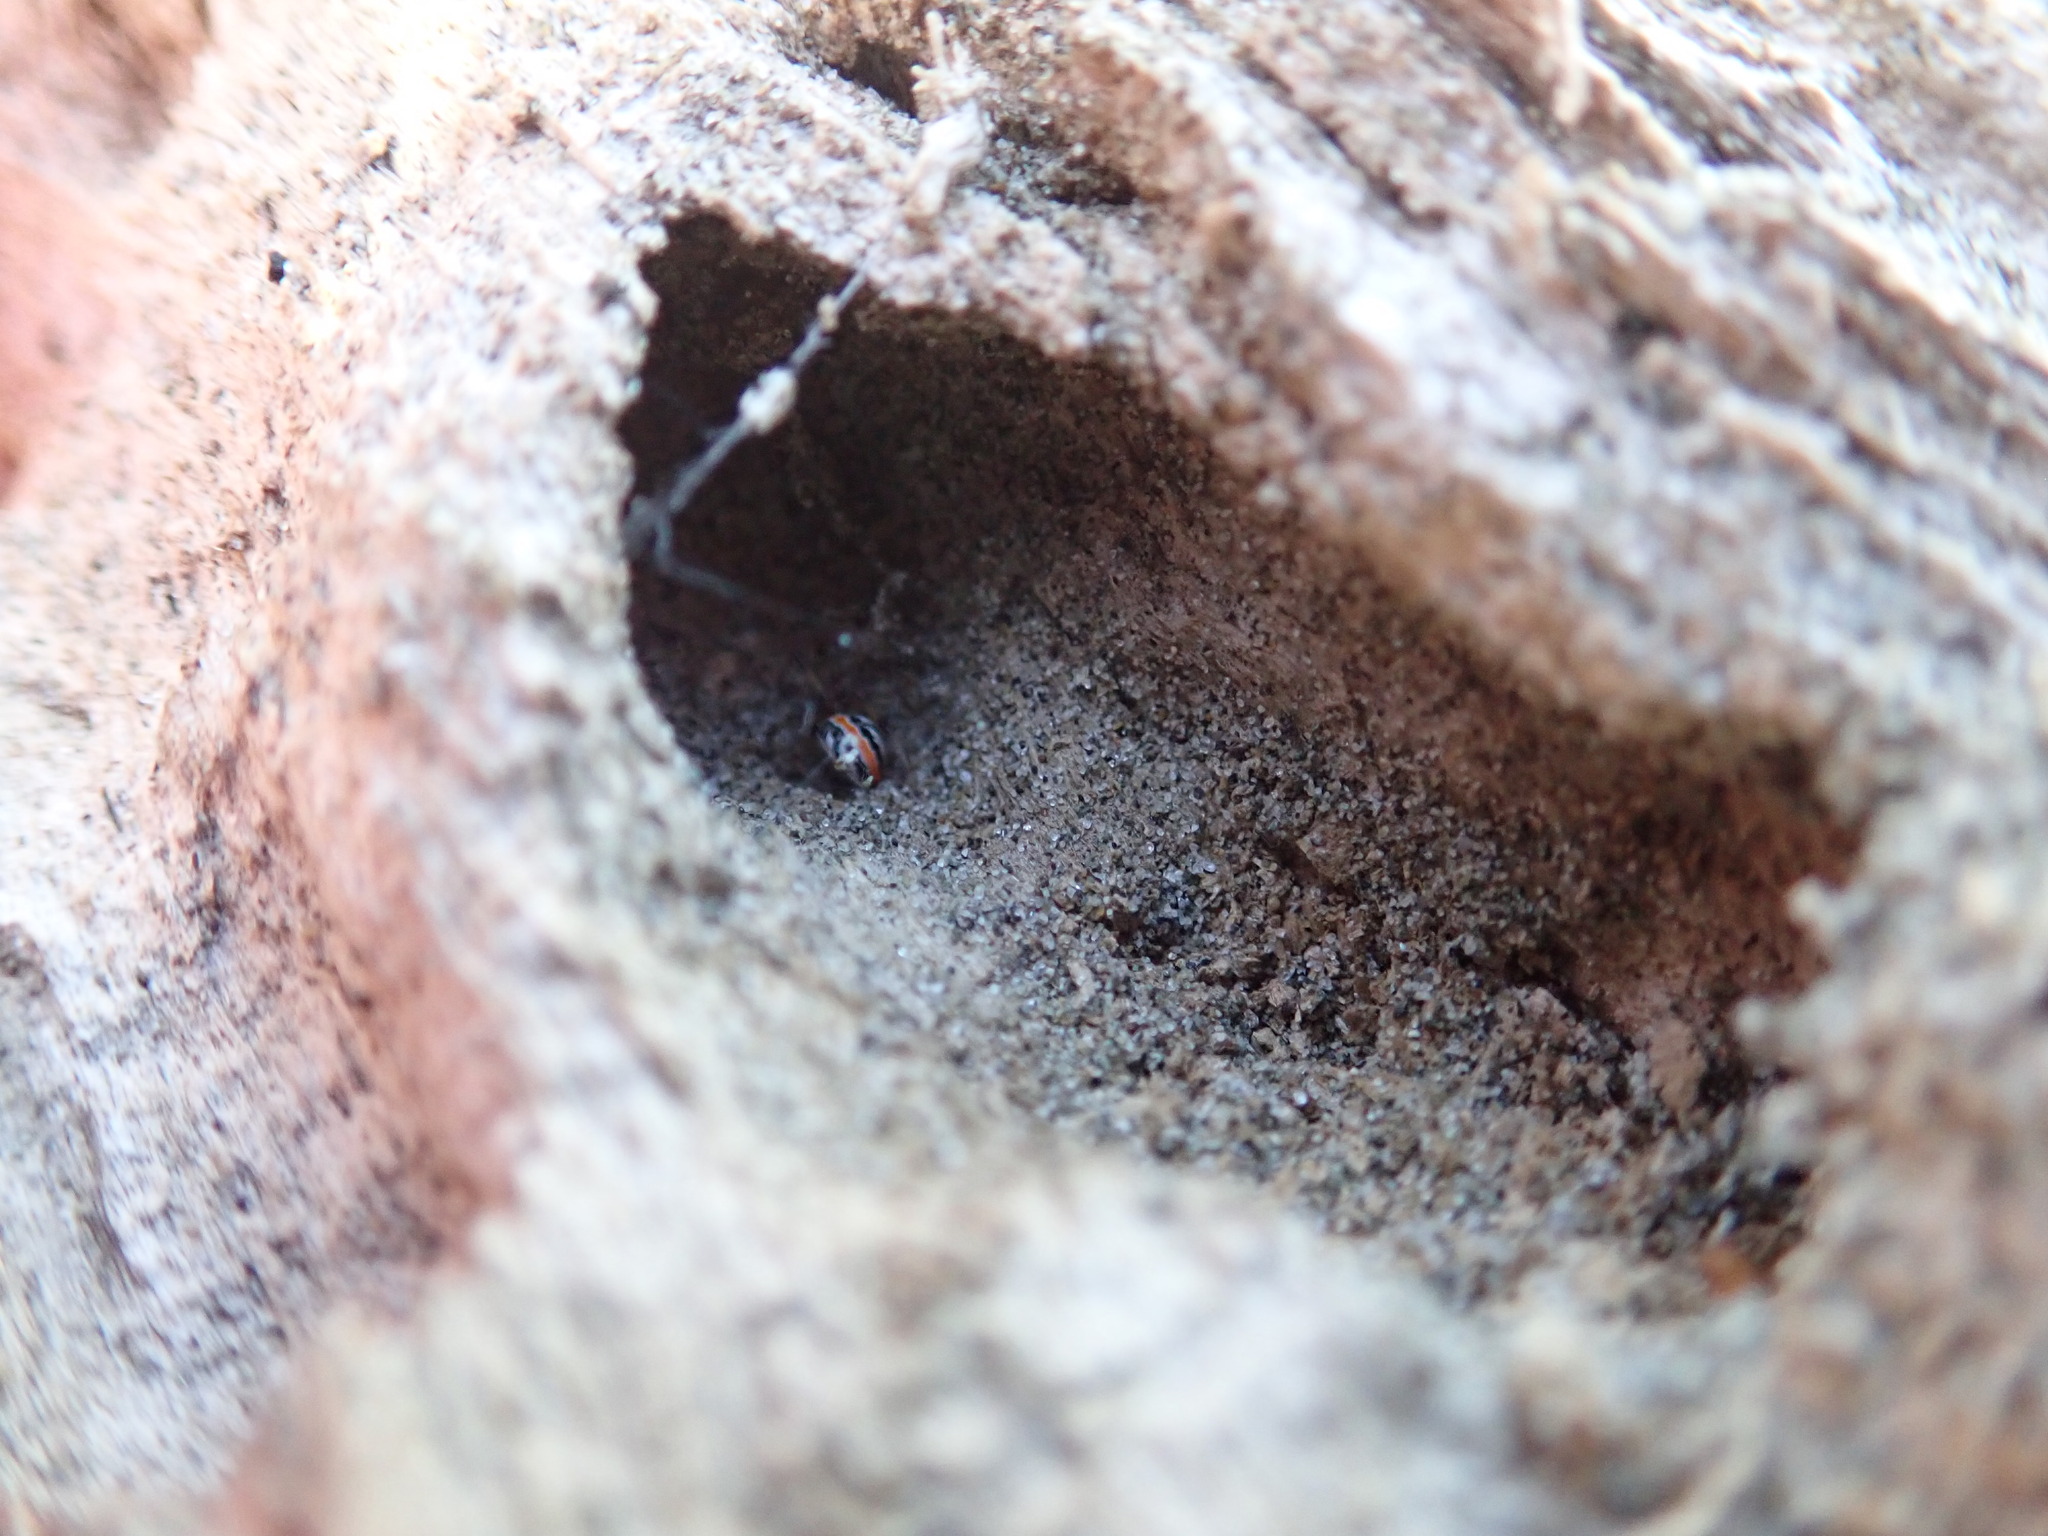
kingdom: Animalia
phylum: Arthropoda
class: Arachnida
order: Araneae
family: Theridiidae
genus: Latrodectus
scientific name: Latrodectus katipo
